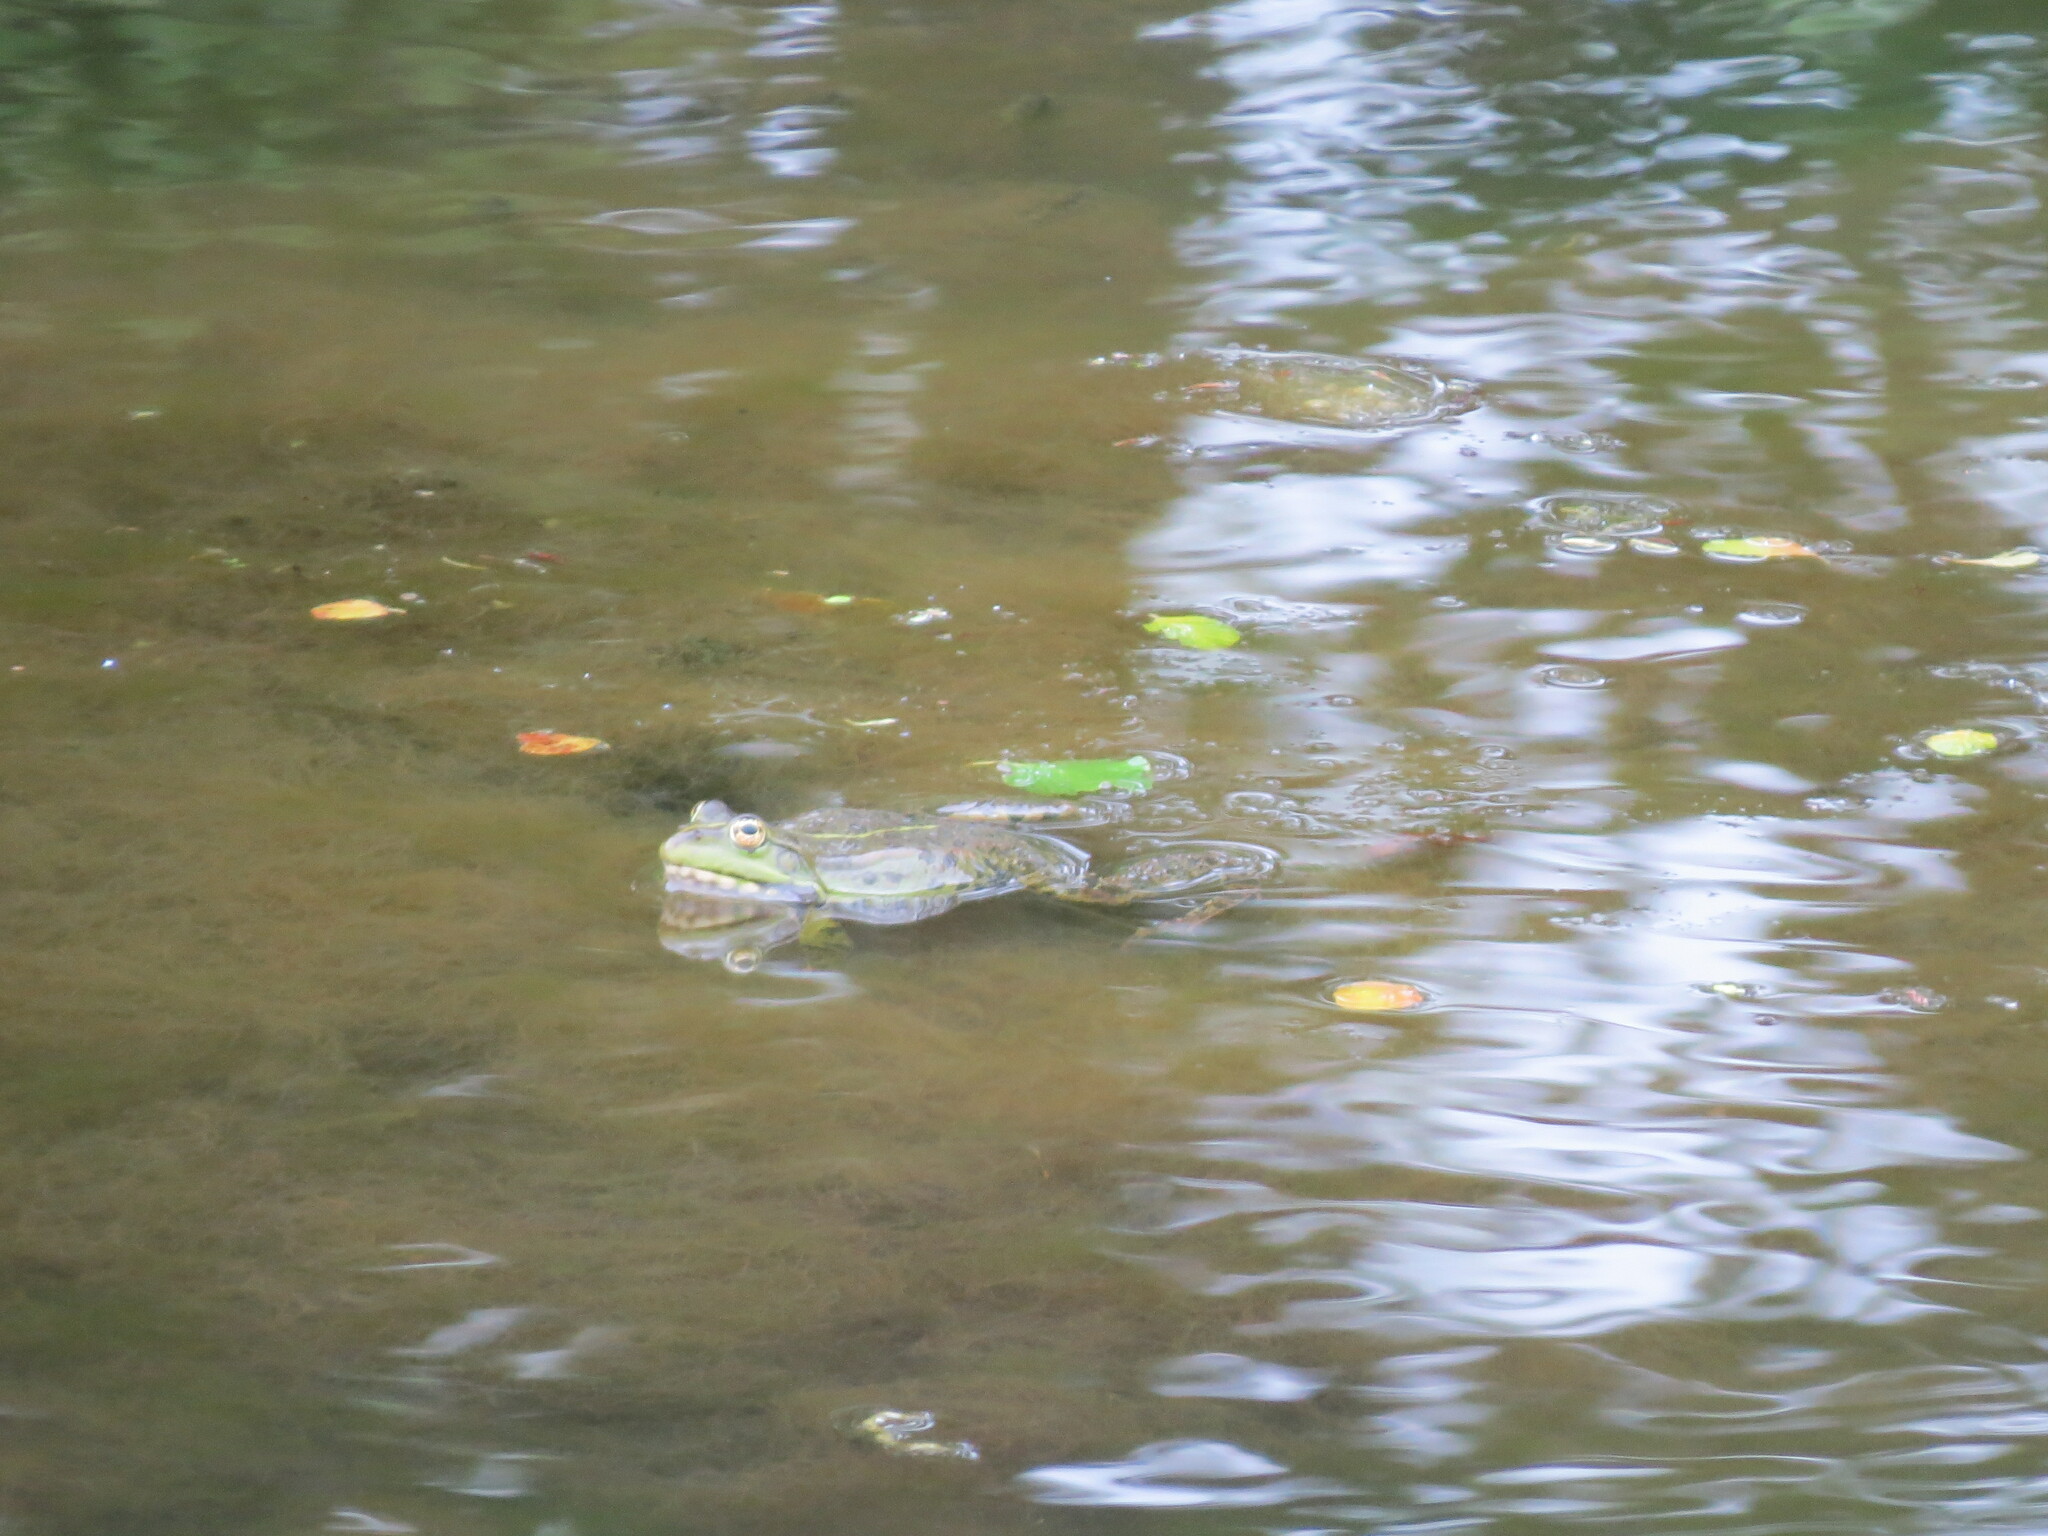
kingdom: Animalia
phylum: Chordata
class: Amphibia
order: Anura
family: Ranidae
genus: Pelophylax
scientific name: Pelophylax ridibundus
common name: Marsh frog
